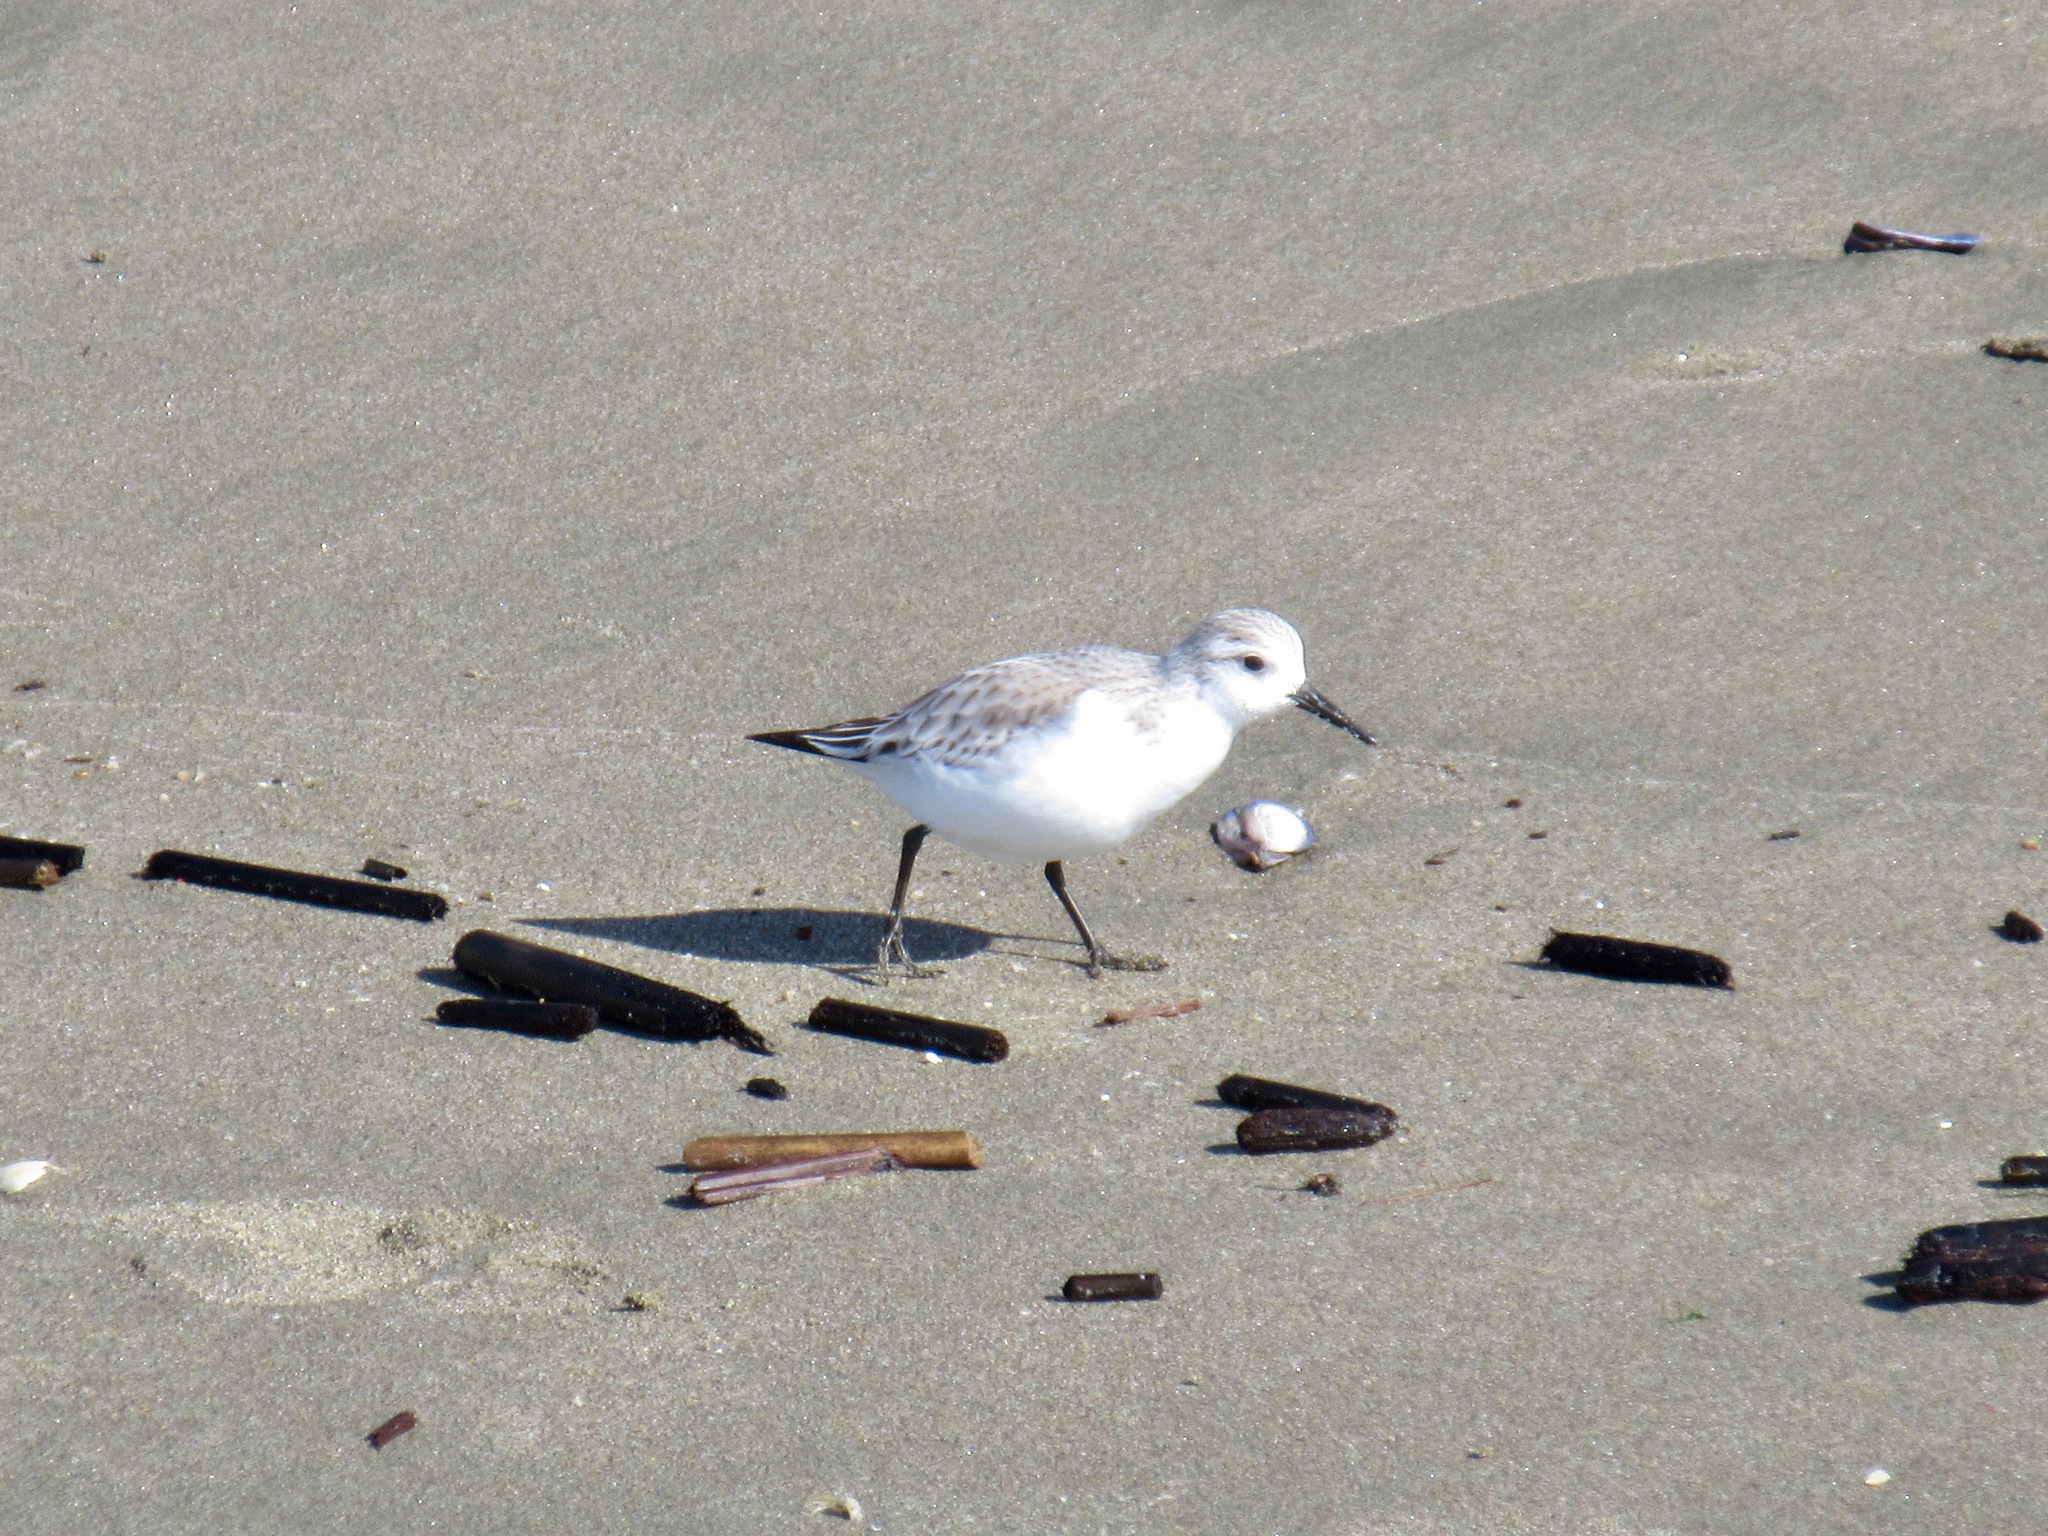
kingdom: Animalia
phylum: Chordata
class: Aves
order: Charadriiformes
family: Scolopacidae
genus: Calidris
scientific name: Calidris alba
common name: Sanderling
